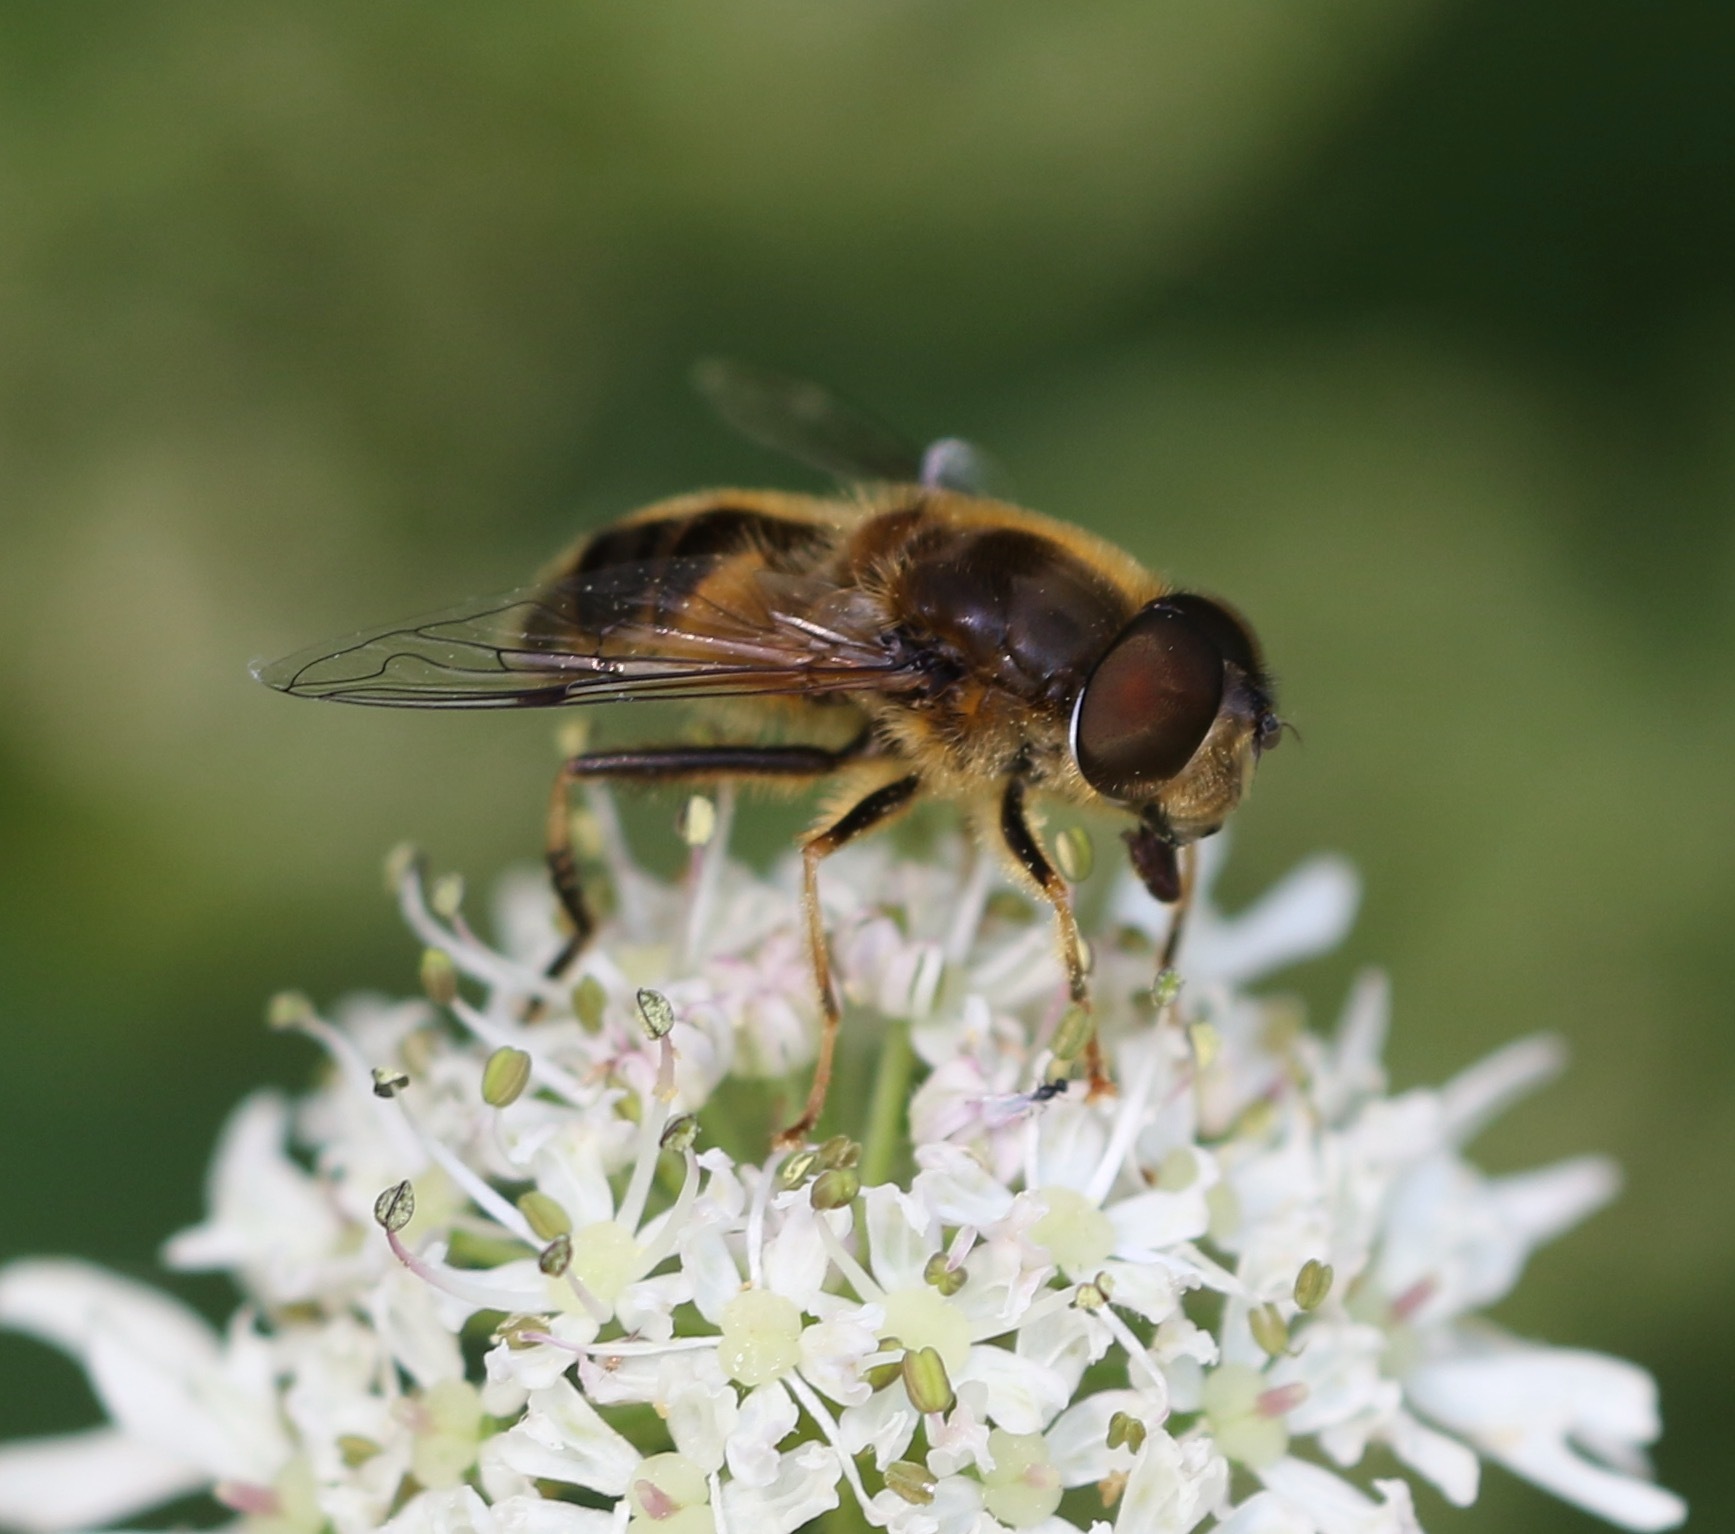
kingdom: Animalia
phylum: Arthropoda
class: Insecta
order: Diptera
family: Syrphidae
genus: Eristalis
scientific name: Eristalis pertinax
